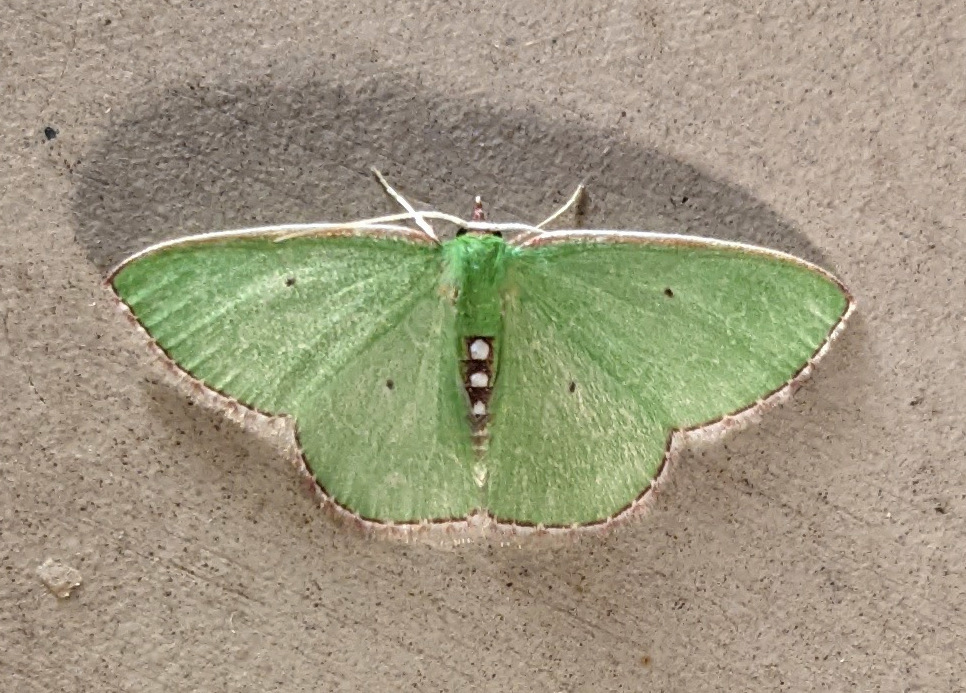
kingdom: Animalia
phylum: Arthropoda
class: Insecta
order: Lepidoptera
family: Geometridae
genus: Nemoria
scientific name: Nemoria bistriaria
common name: Red-fringed emerald
